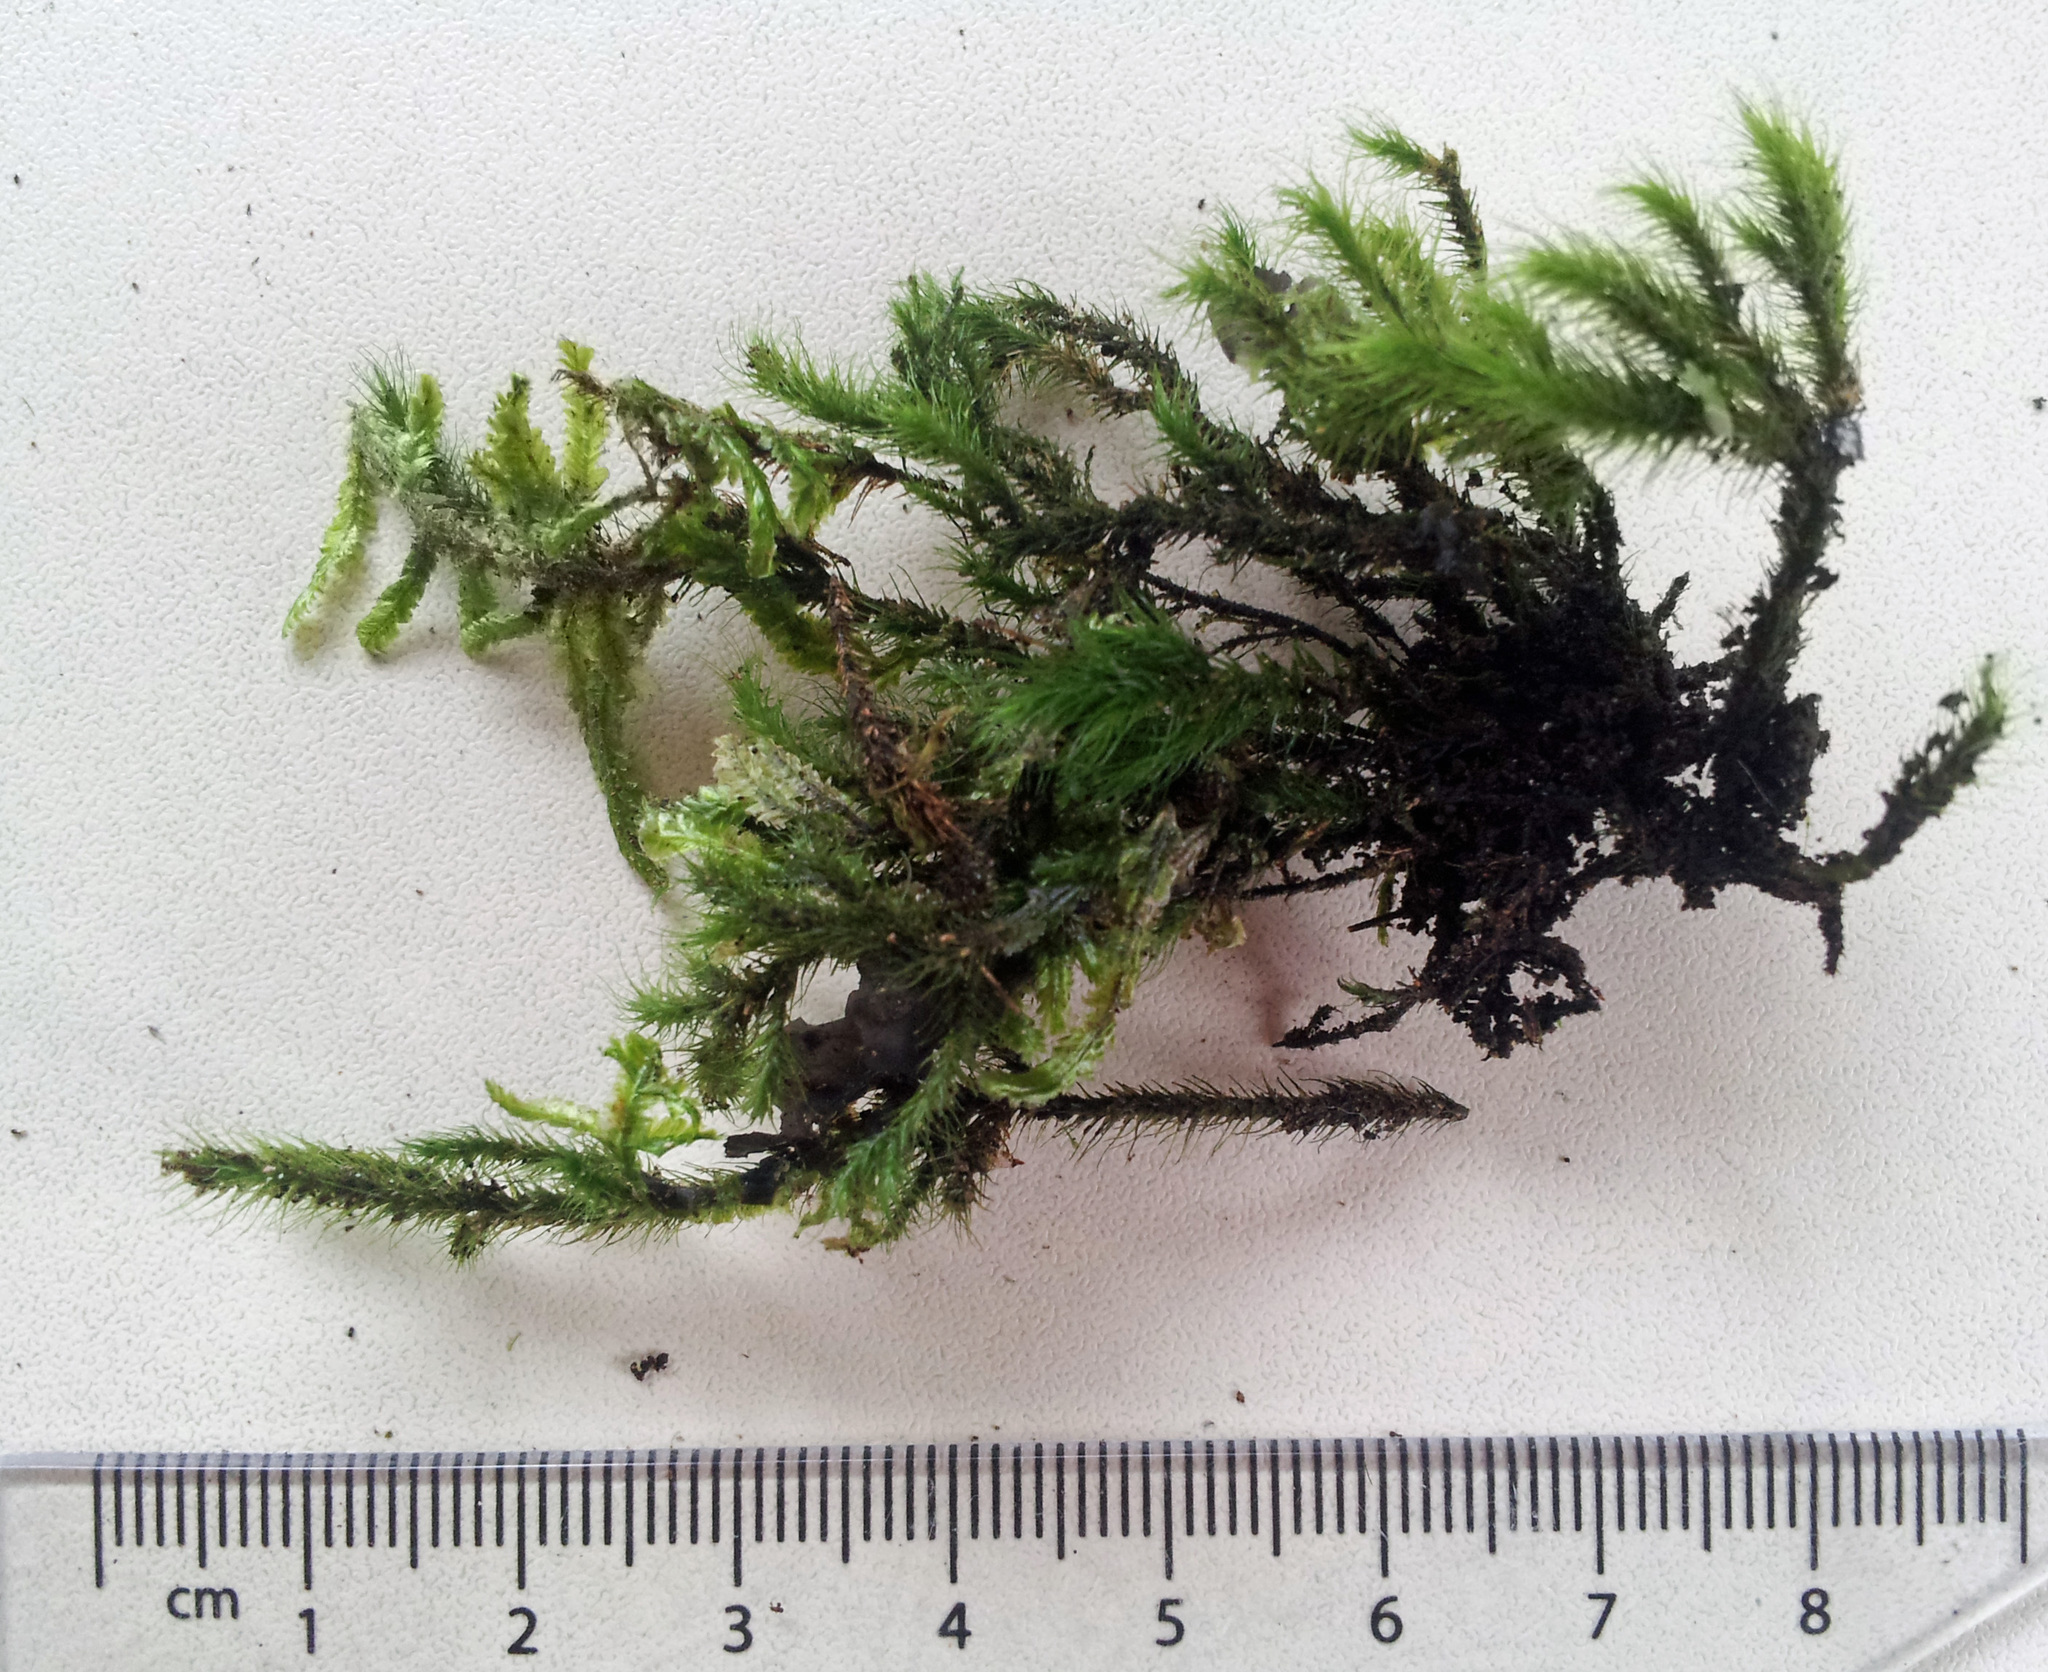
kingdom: Plantae
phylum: Bryophyta
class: Bryopsida
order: Hypnales
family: Neckeraceae
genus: Echinodiopsis
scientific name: Echinodiopsis hispida
